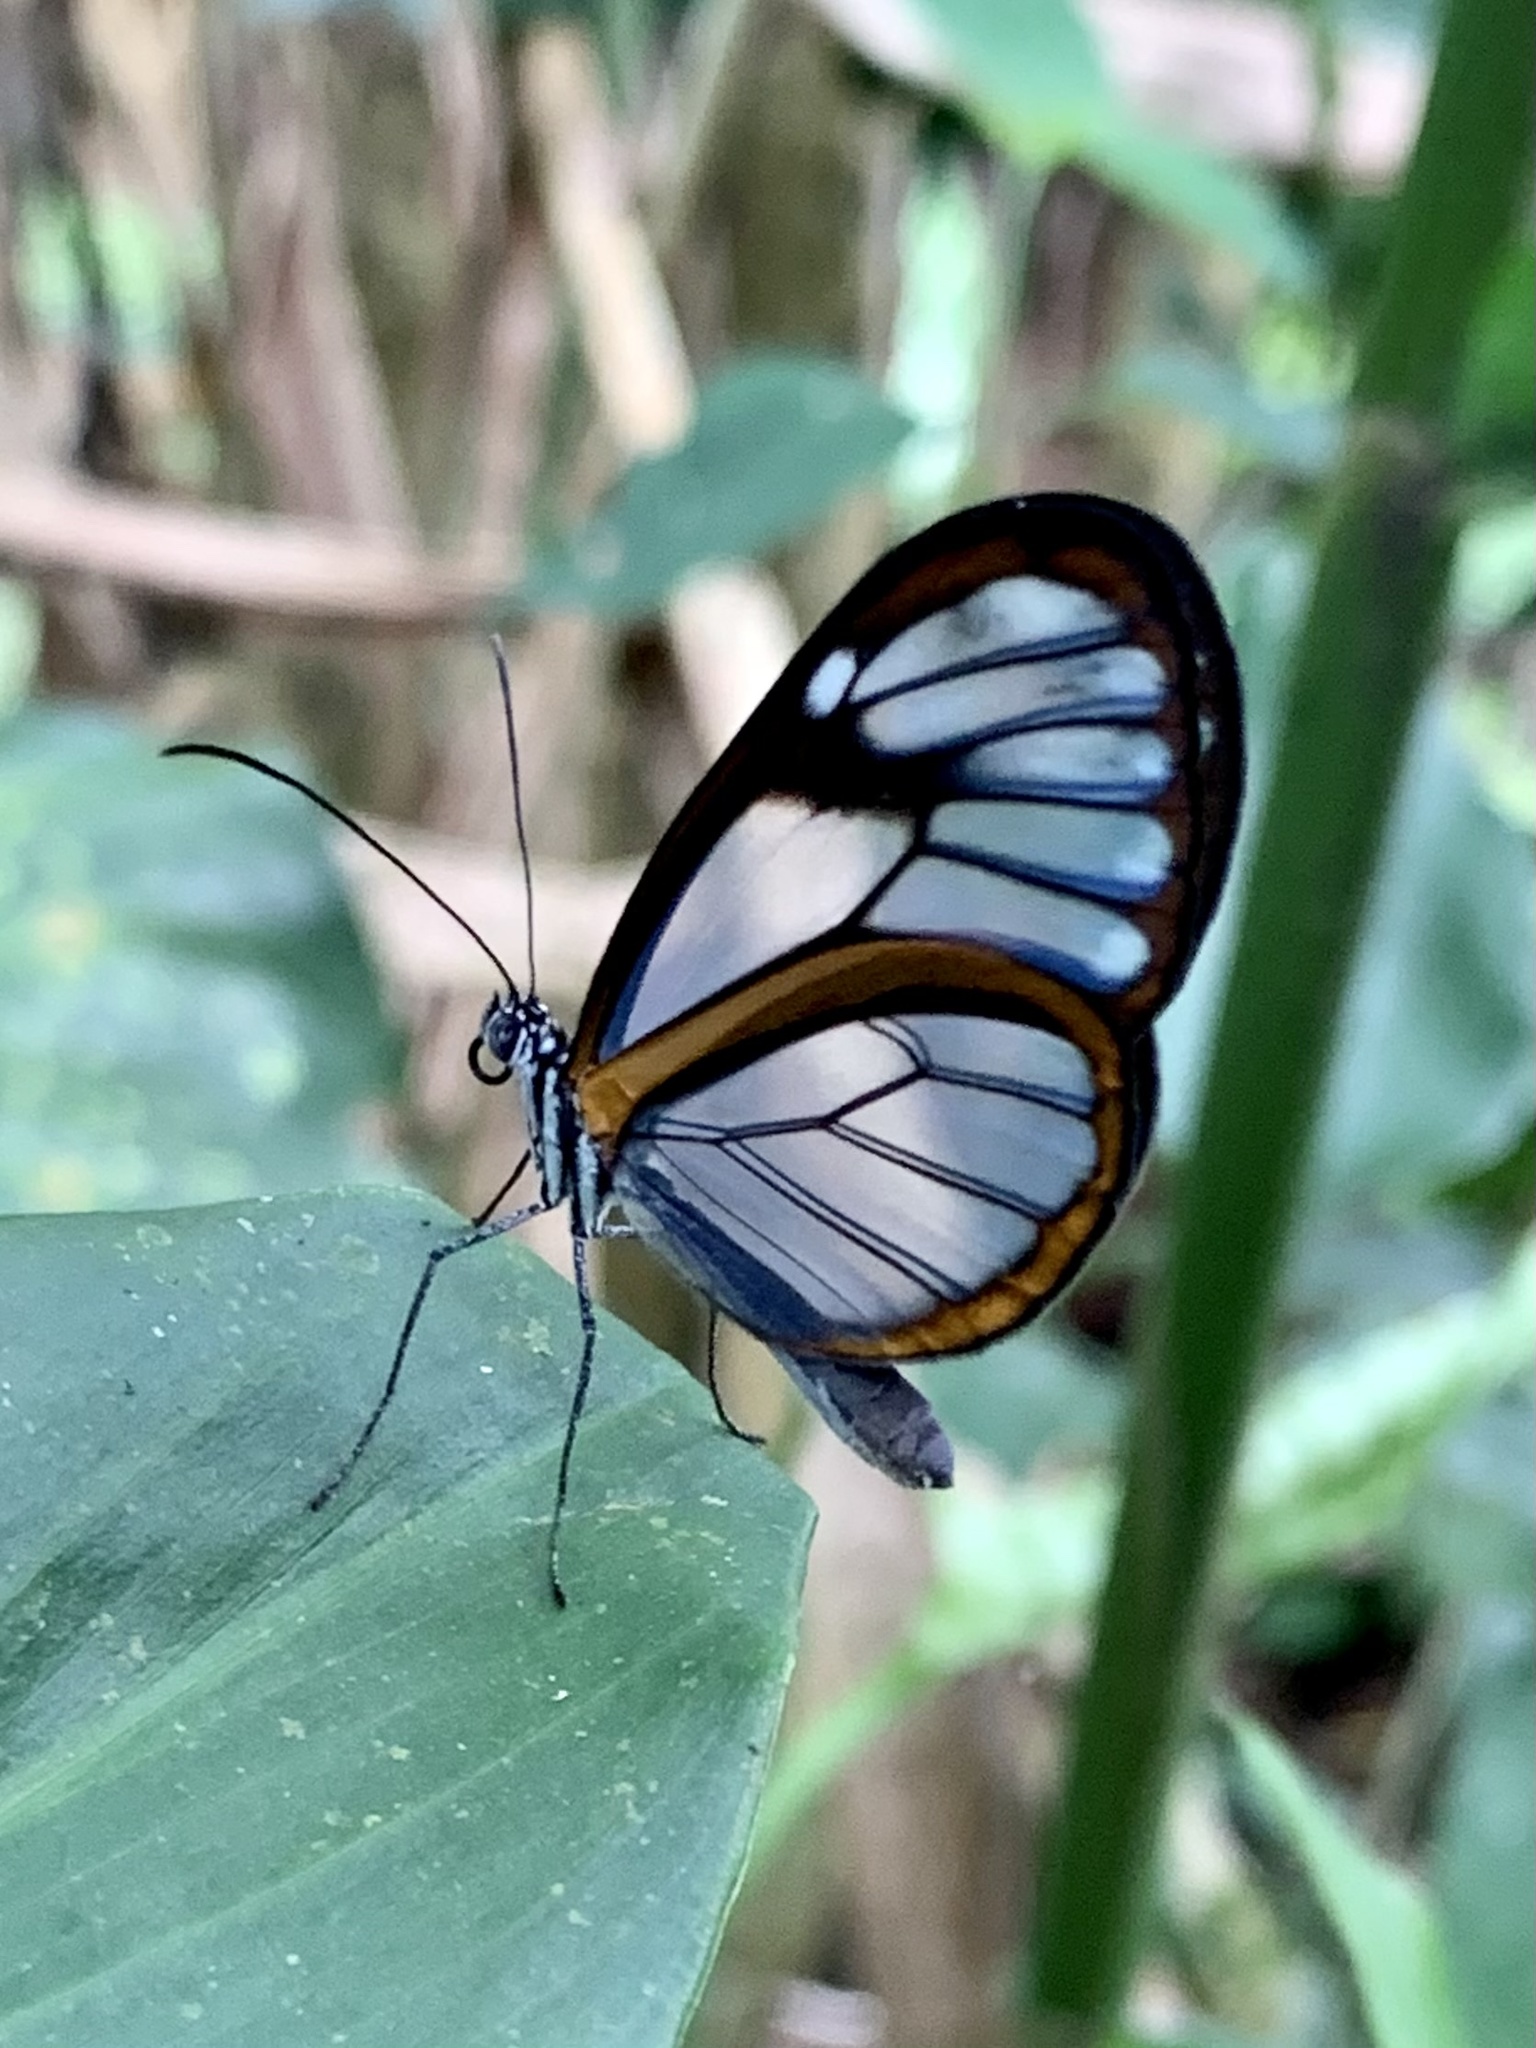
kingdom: Animalia
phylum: Arthropoda
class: Insecta
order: Lepidoptera
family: Nymphalidae
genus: Hypoleria
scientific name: Hypoleria lavinia
